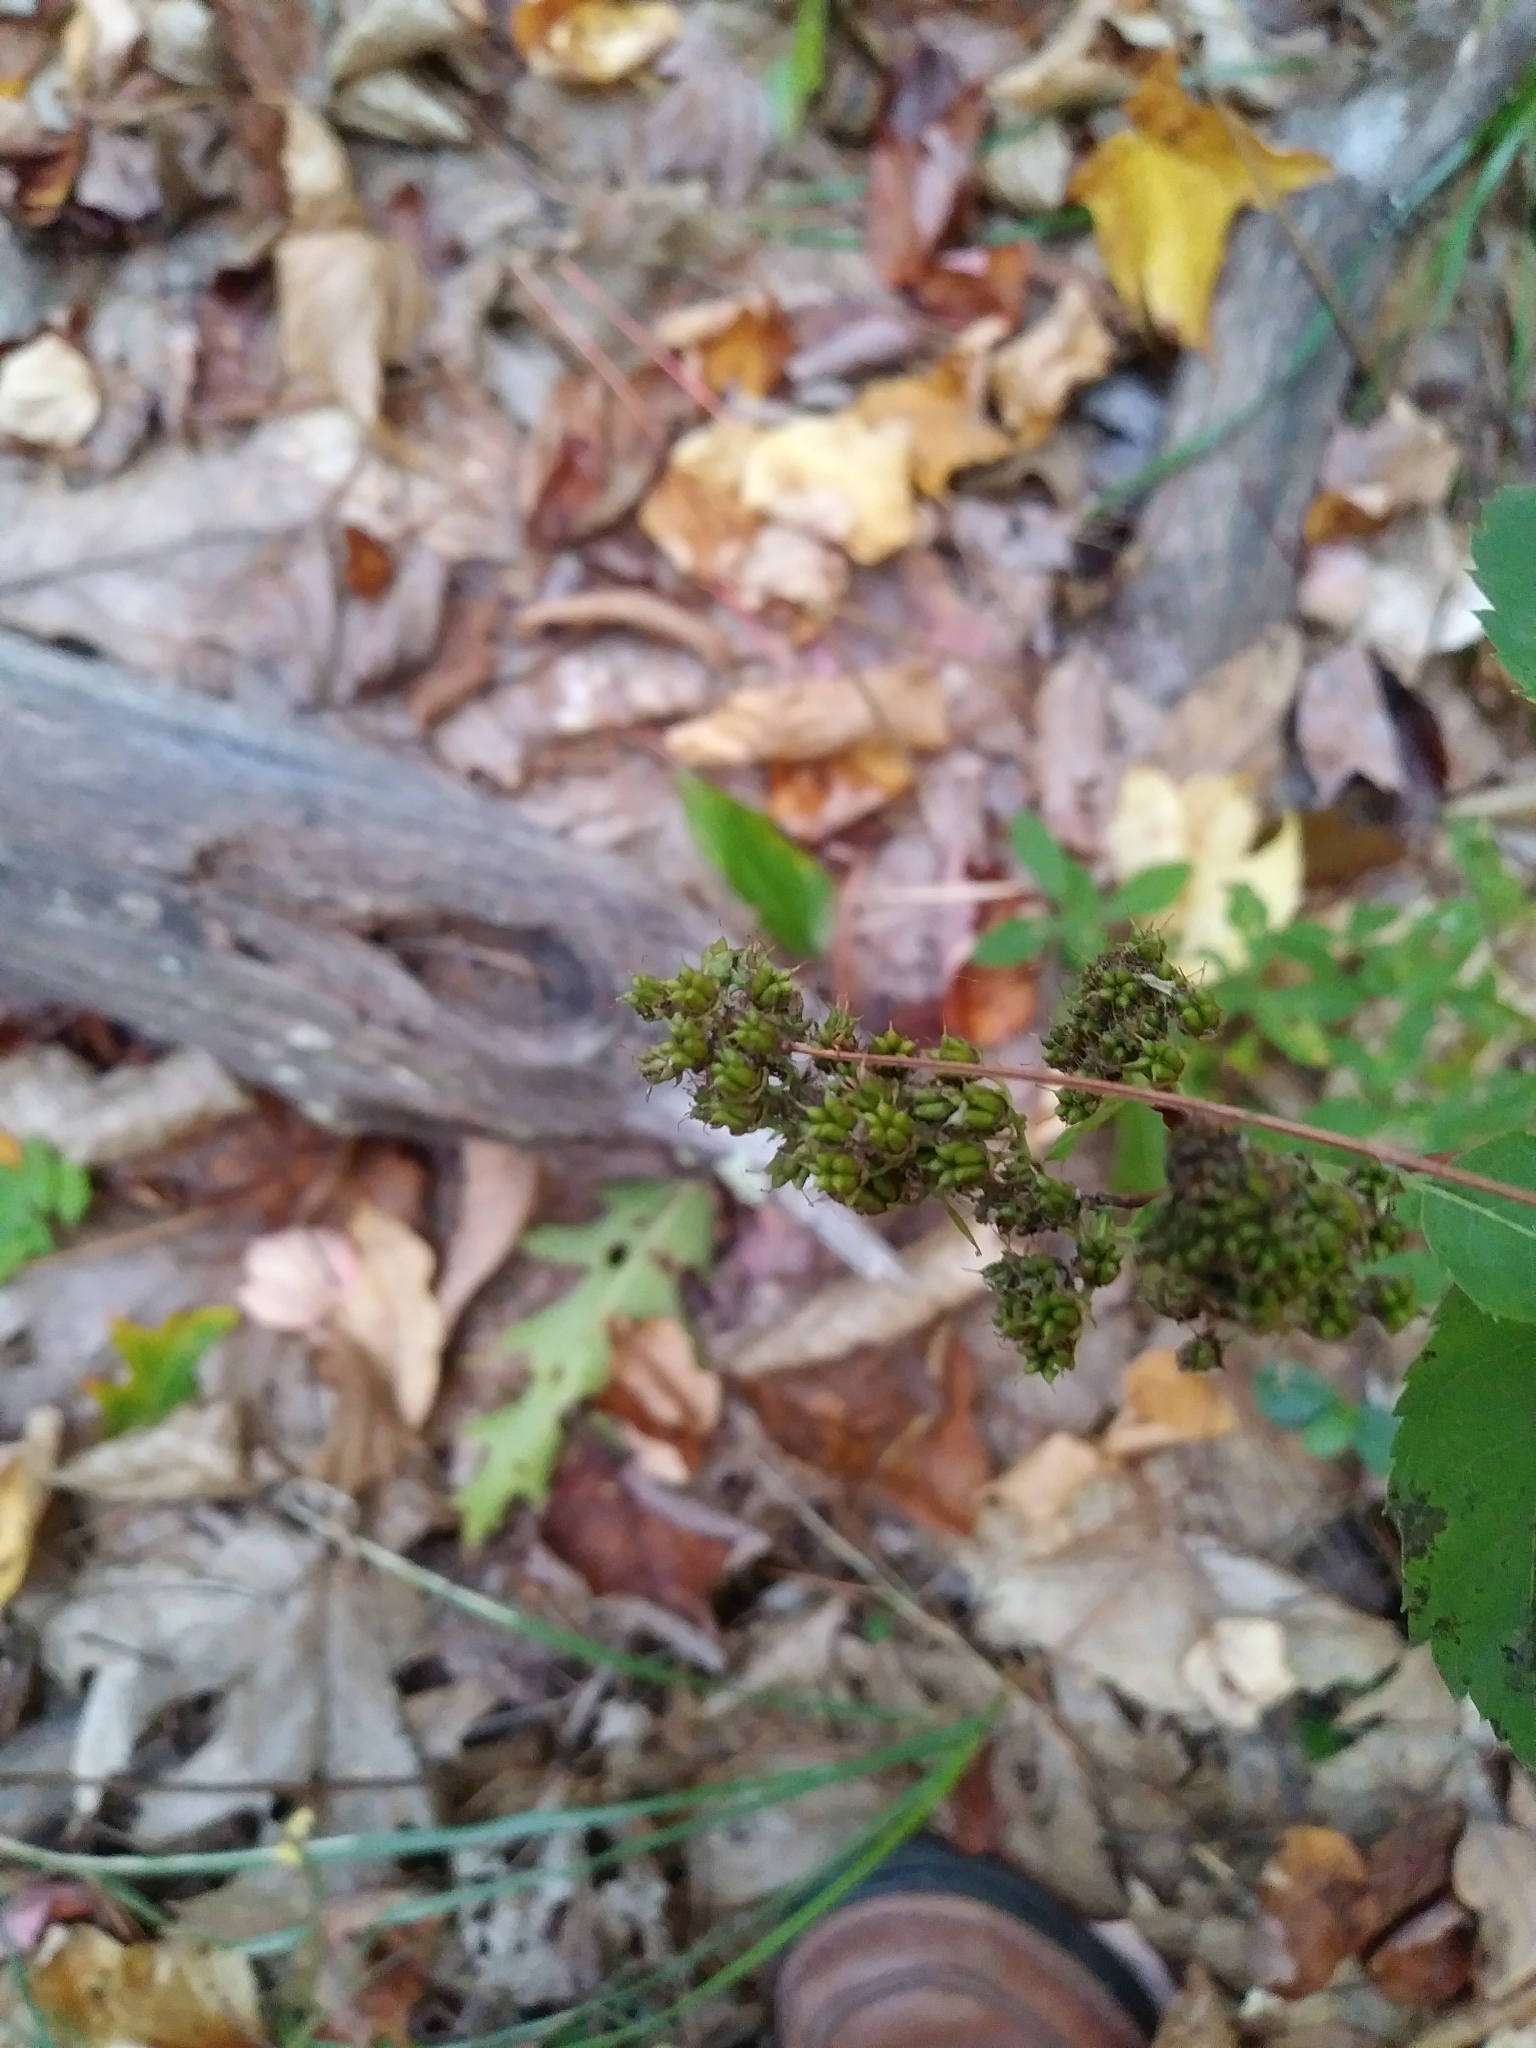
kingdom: Plantae
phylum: Tracheophyta
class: Magnoliopsida
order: Rosales
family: Rosaceae
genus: Spiraea
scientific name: Spiraea alba
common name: Pale bridewort
